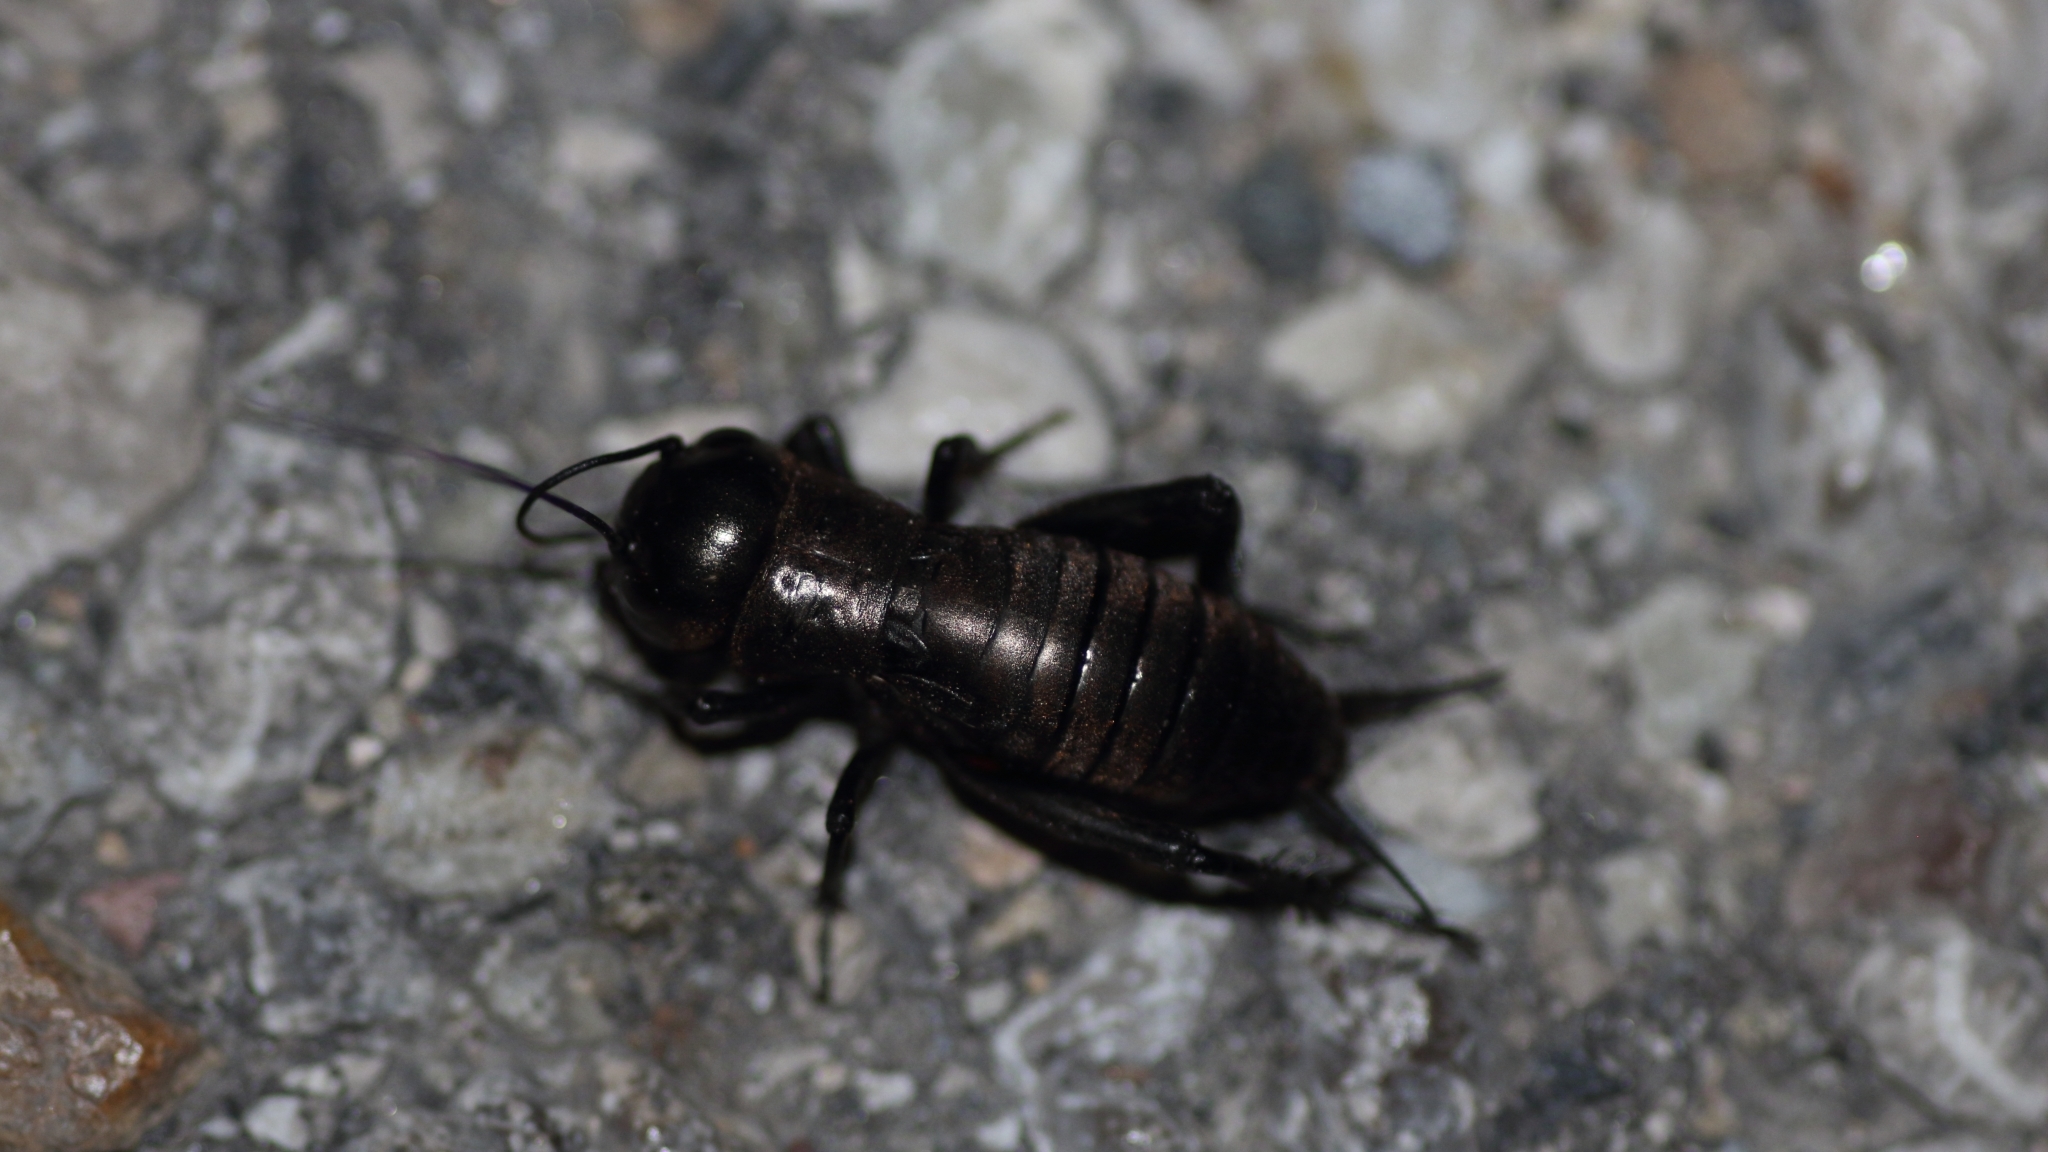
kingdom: Animalia
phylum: Arthropoda
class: Insecta
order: Orthoptera
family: Gryllidae
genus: Gryllus
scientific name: Gryllus campestris
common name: Field cricket
